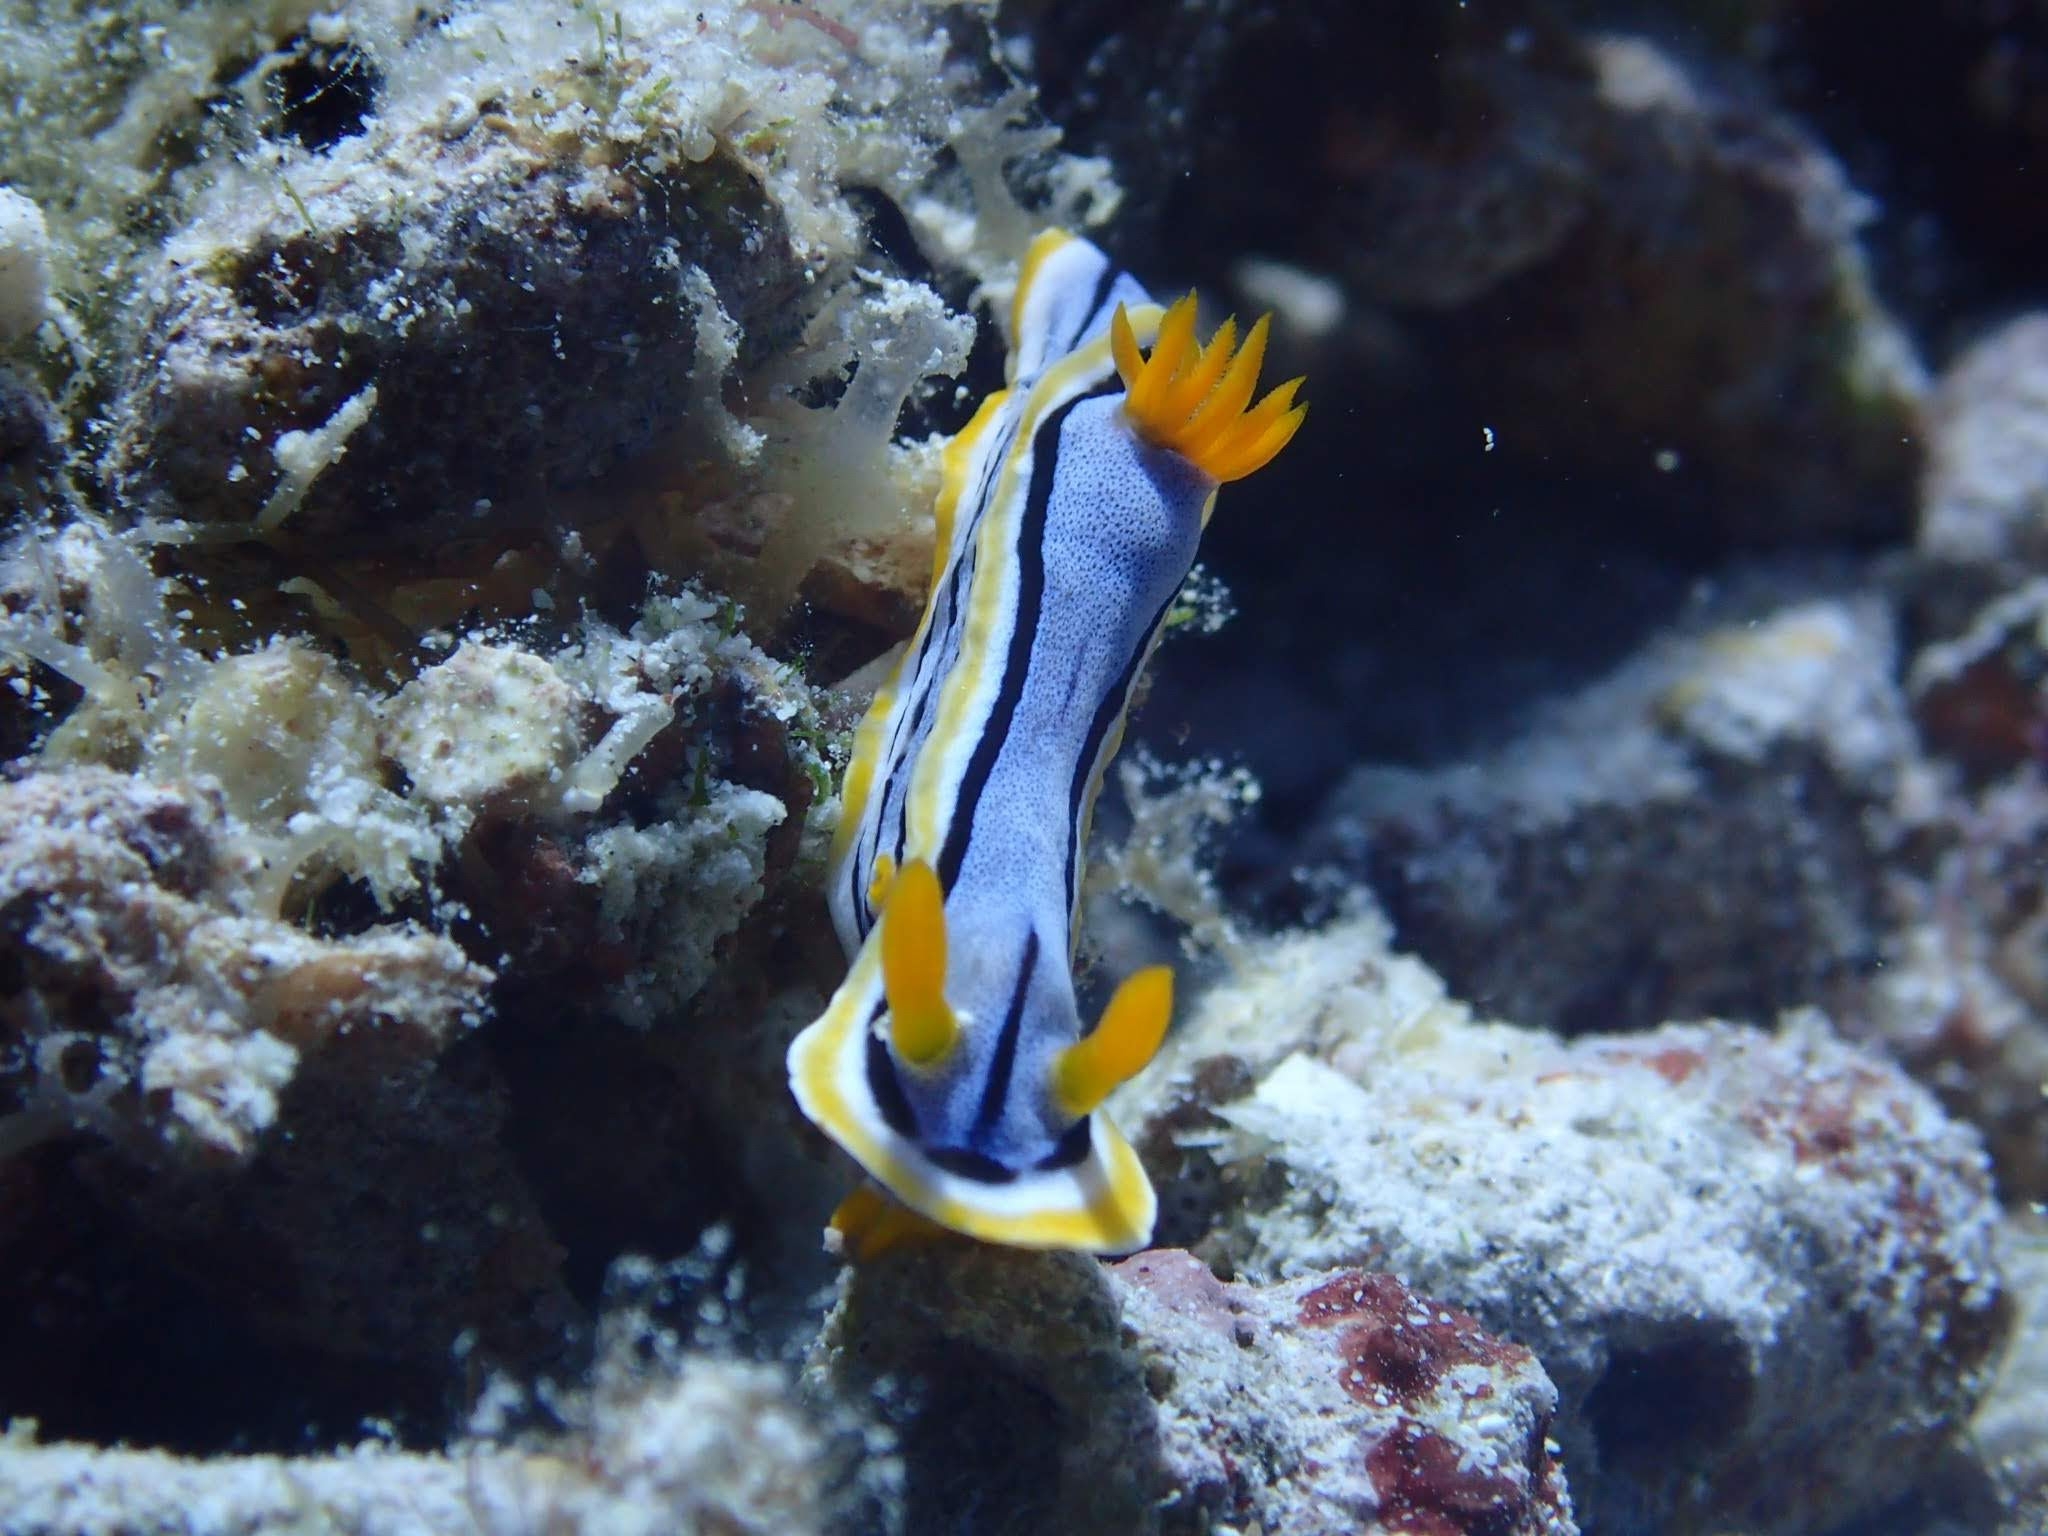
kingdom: Animalia
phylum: Mollusca
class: Gastropoda
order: Nudibranchia
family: Chromodorididae
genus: Chromodoris
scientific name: Chromodoris annae
